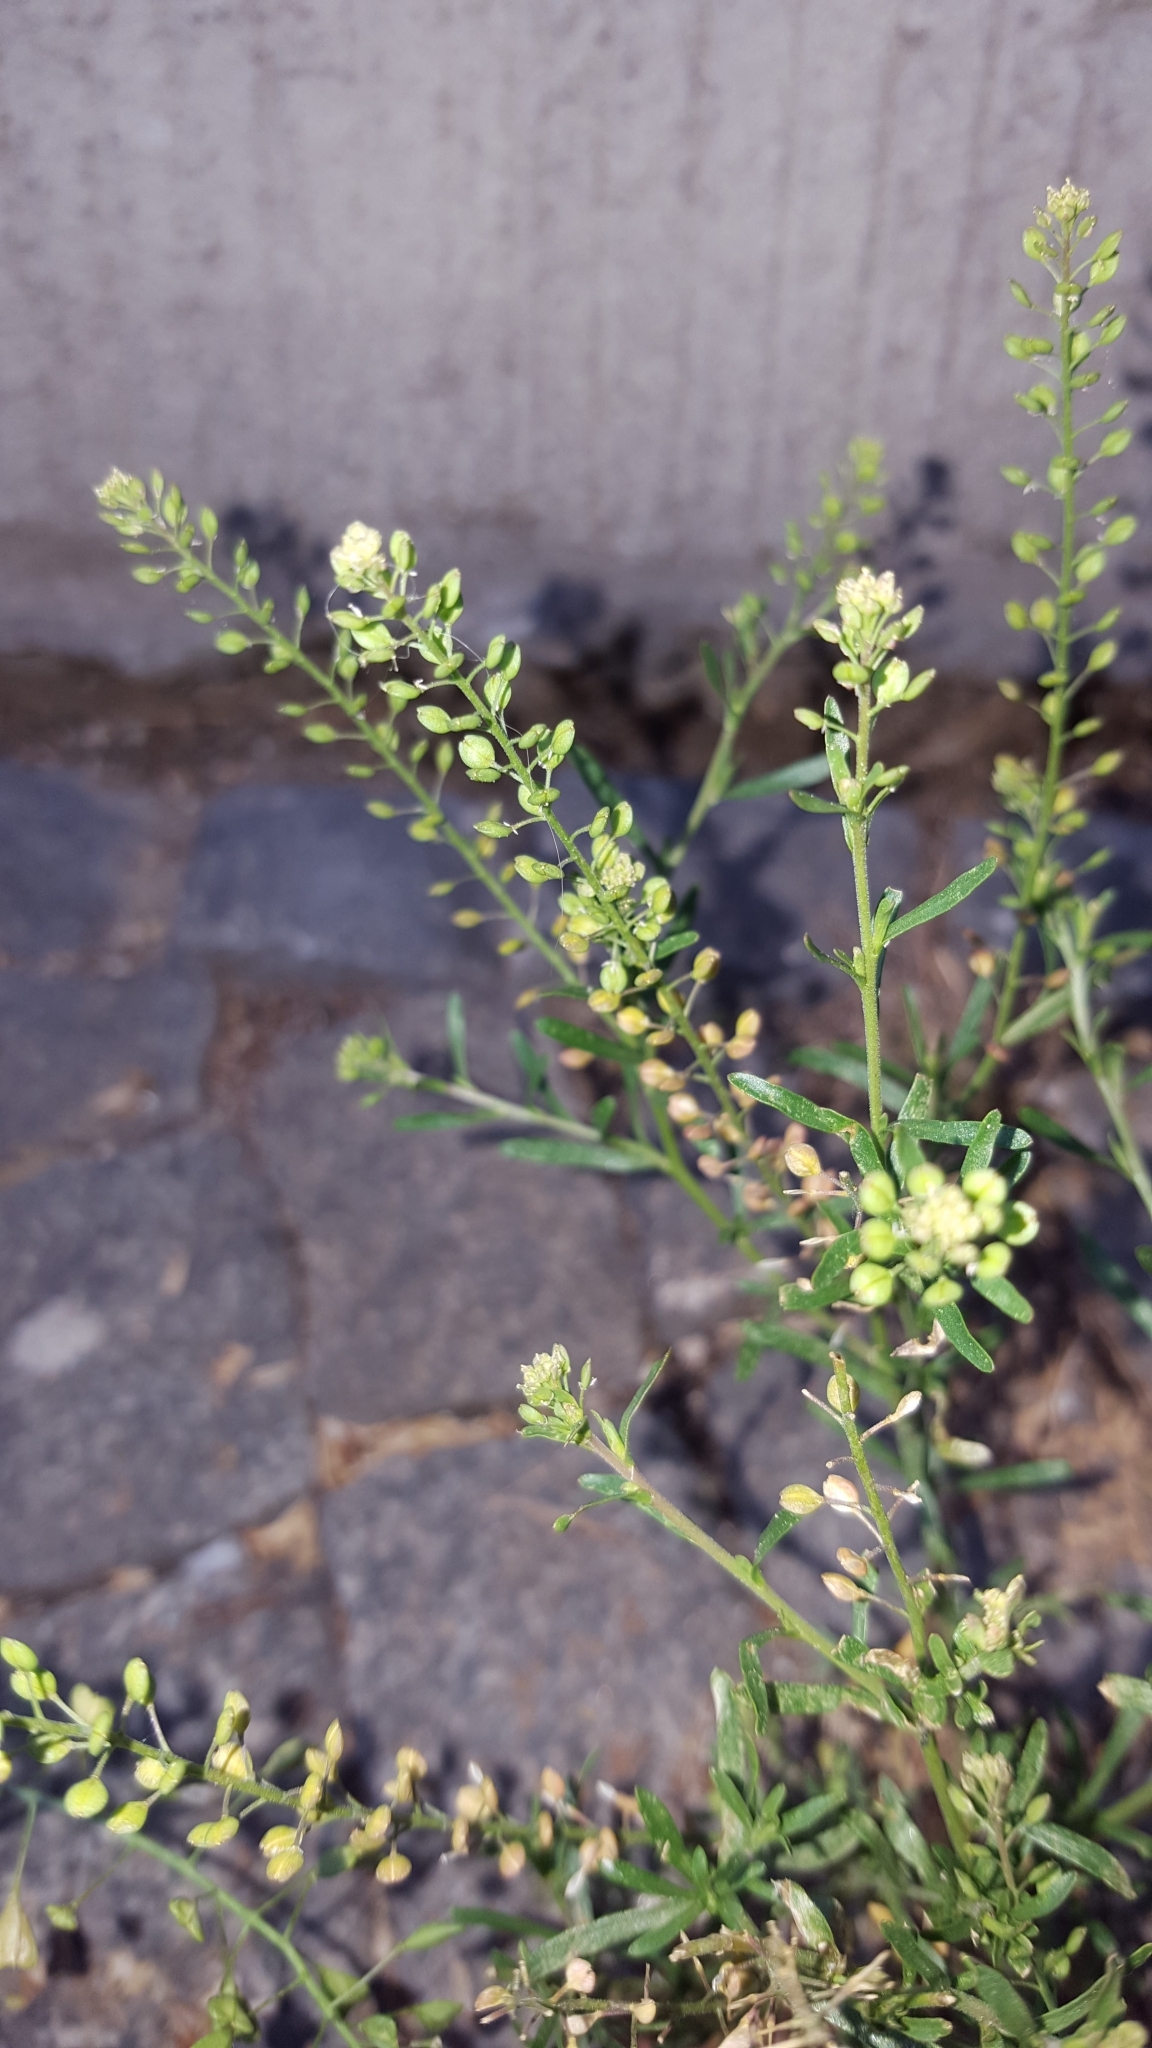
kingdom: Plantae
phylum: Tracheophyta
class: Magnoliopsida
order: Brassicales
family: Brassicaceae
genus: Lepidium
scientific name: Lepidium ruderale
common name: Narrow-leaved pepperwort
